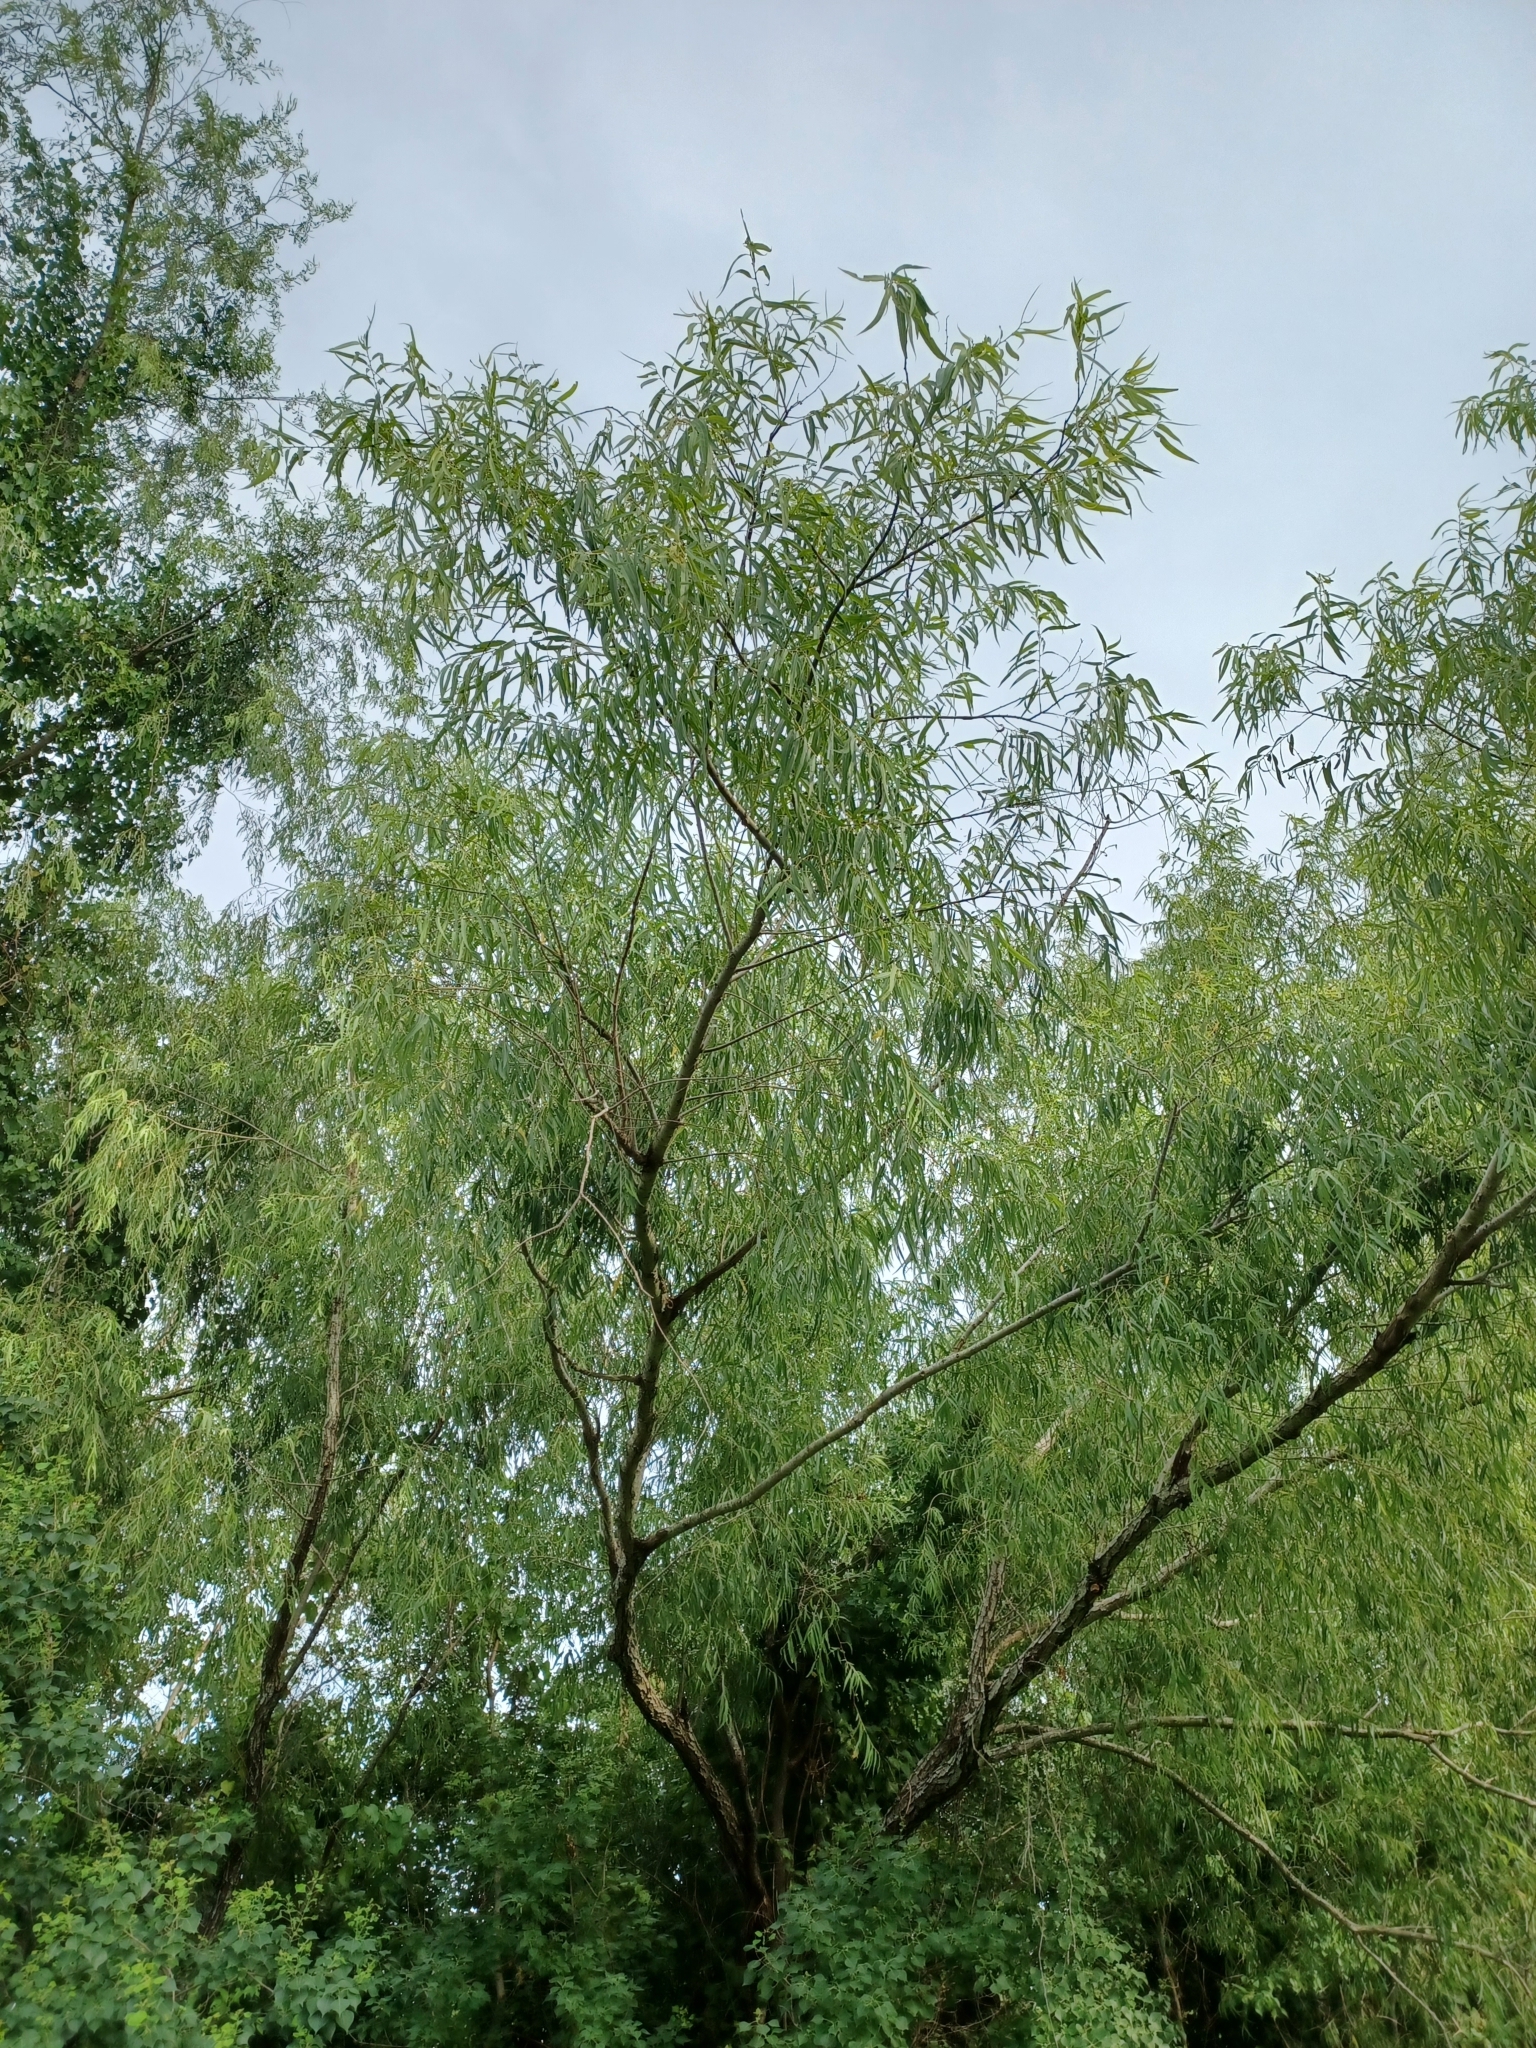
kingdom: Plantae
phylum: Tracheophyta
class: Magnoliopsida
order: Malpighiales
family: Salicaceae
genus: Salix
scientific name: Salix nigra
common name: Black willow
